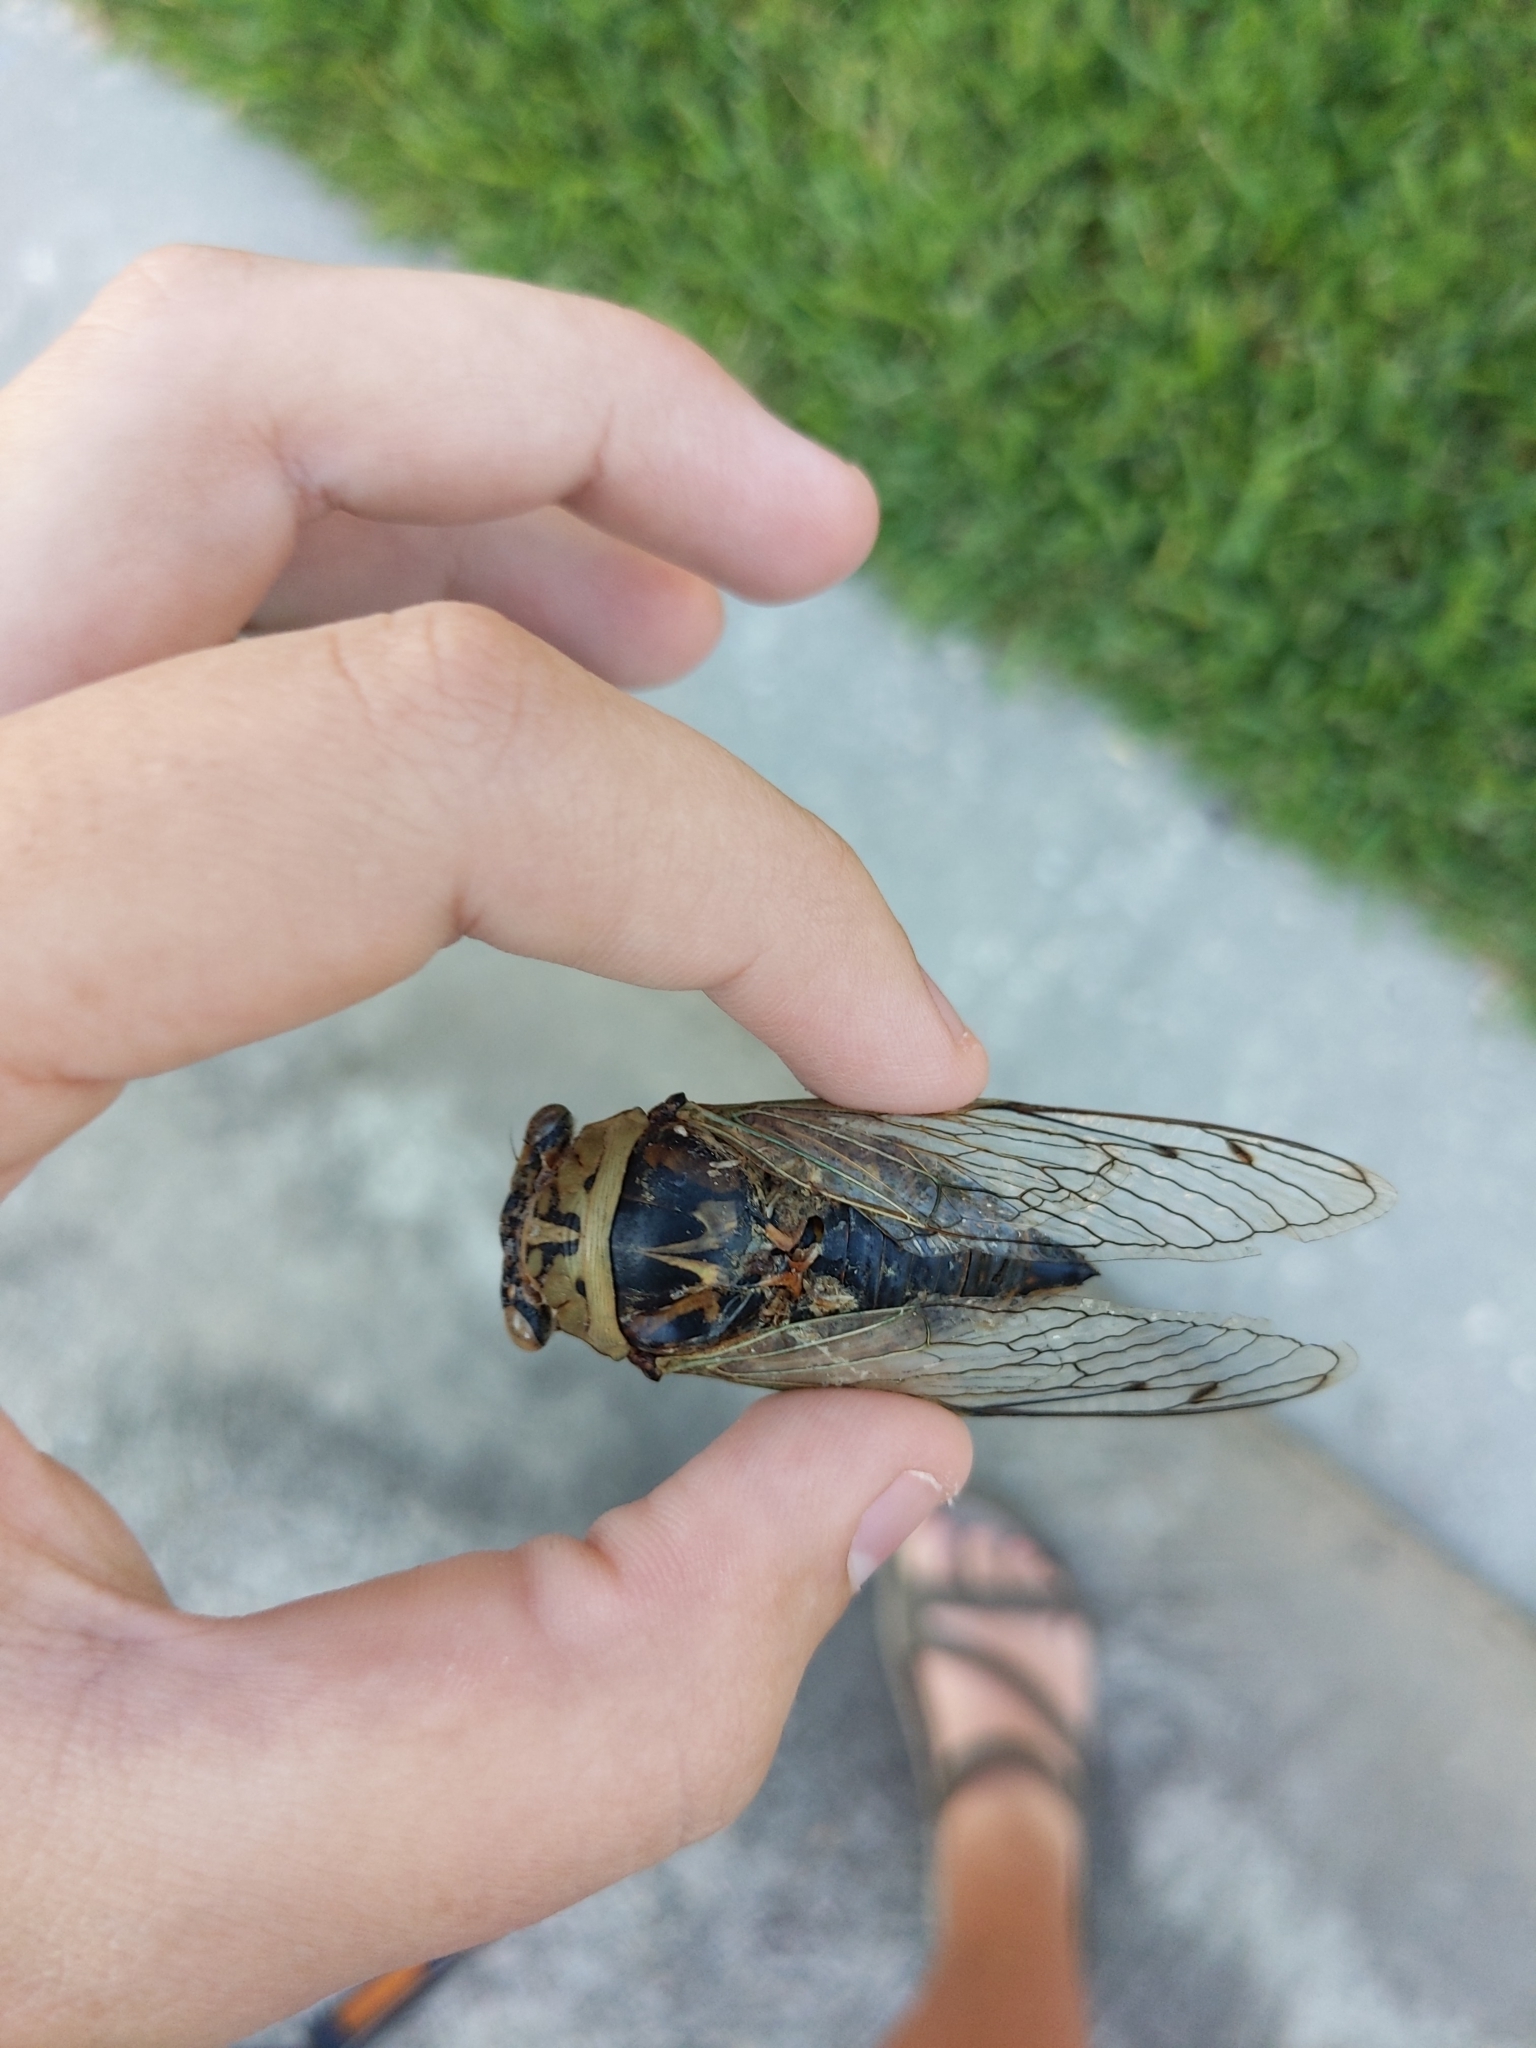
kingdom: Animalia
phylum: Arthropoda
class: Insecta
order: Hemiptera
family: Cicadidae
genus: Megatibicen
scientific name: Megatibicen resh
